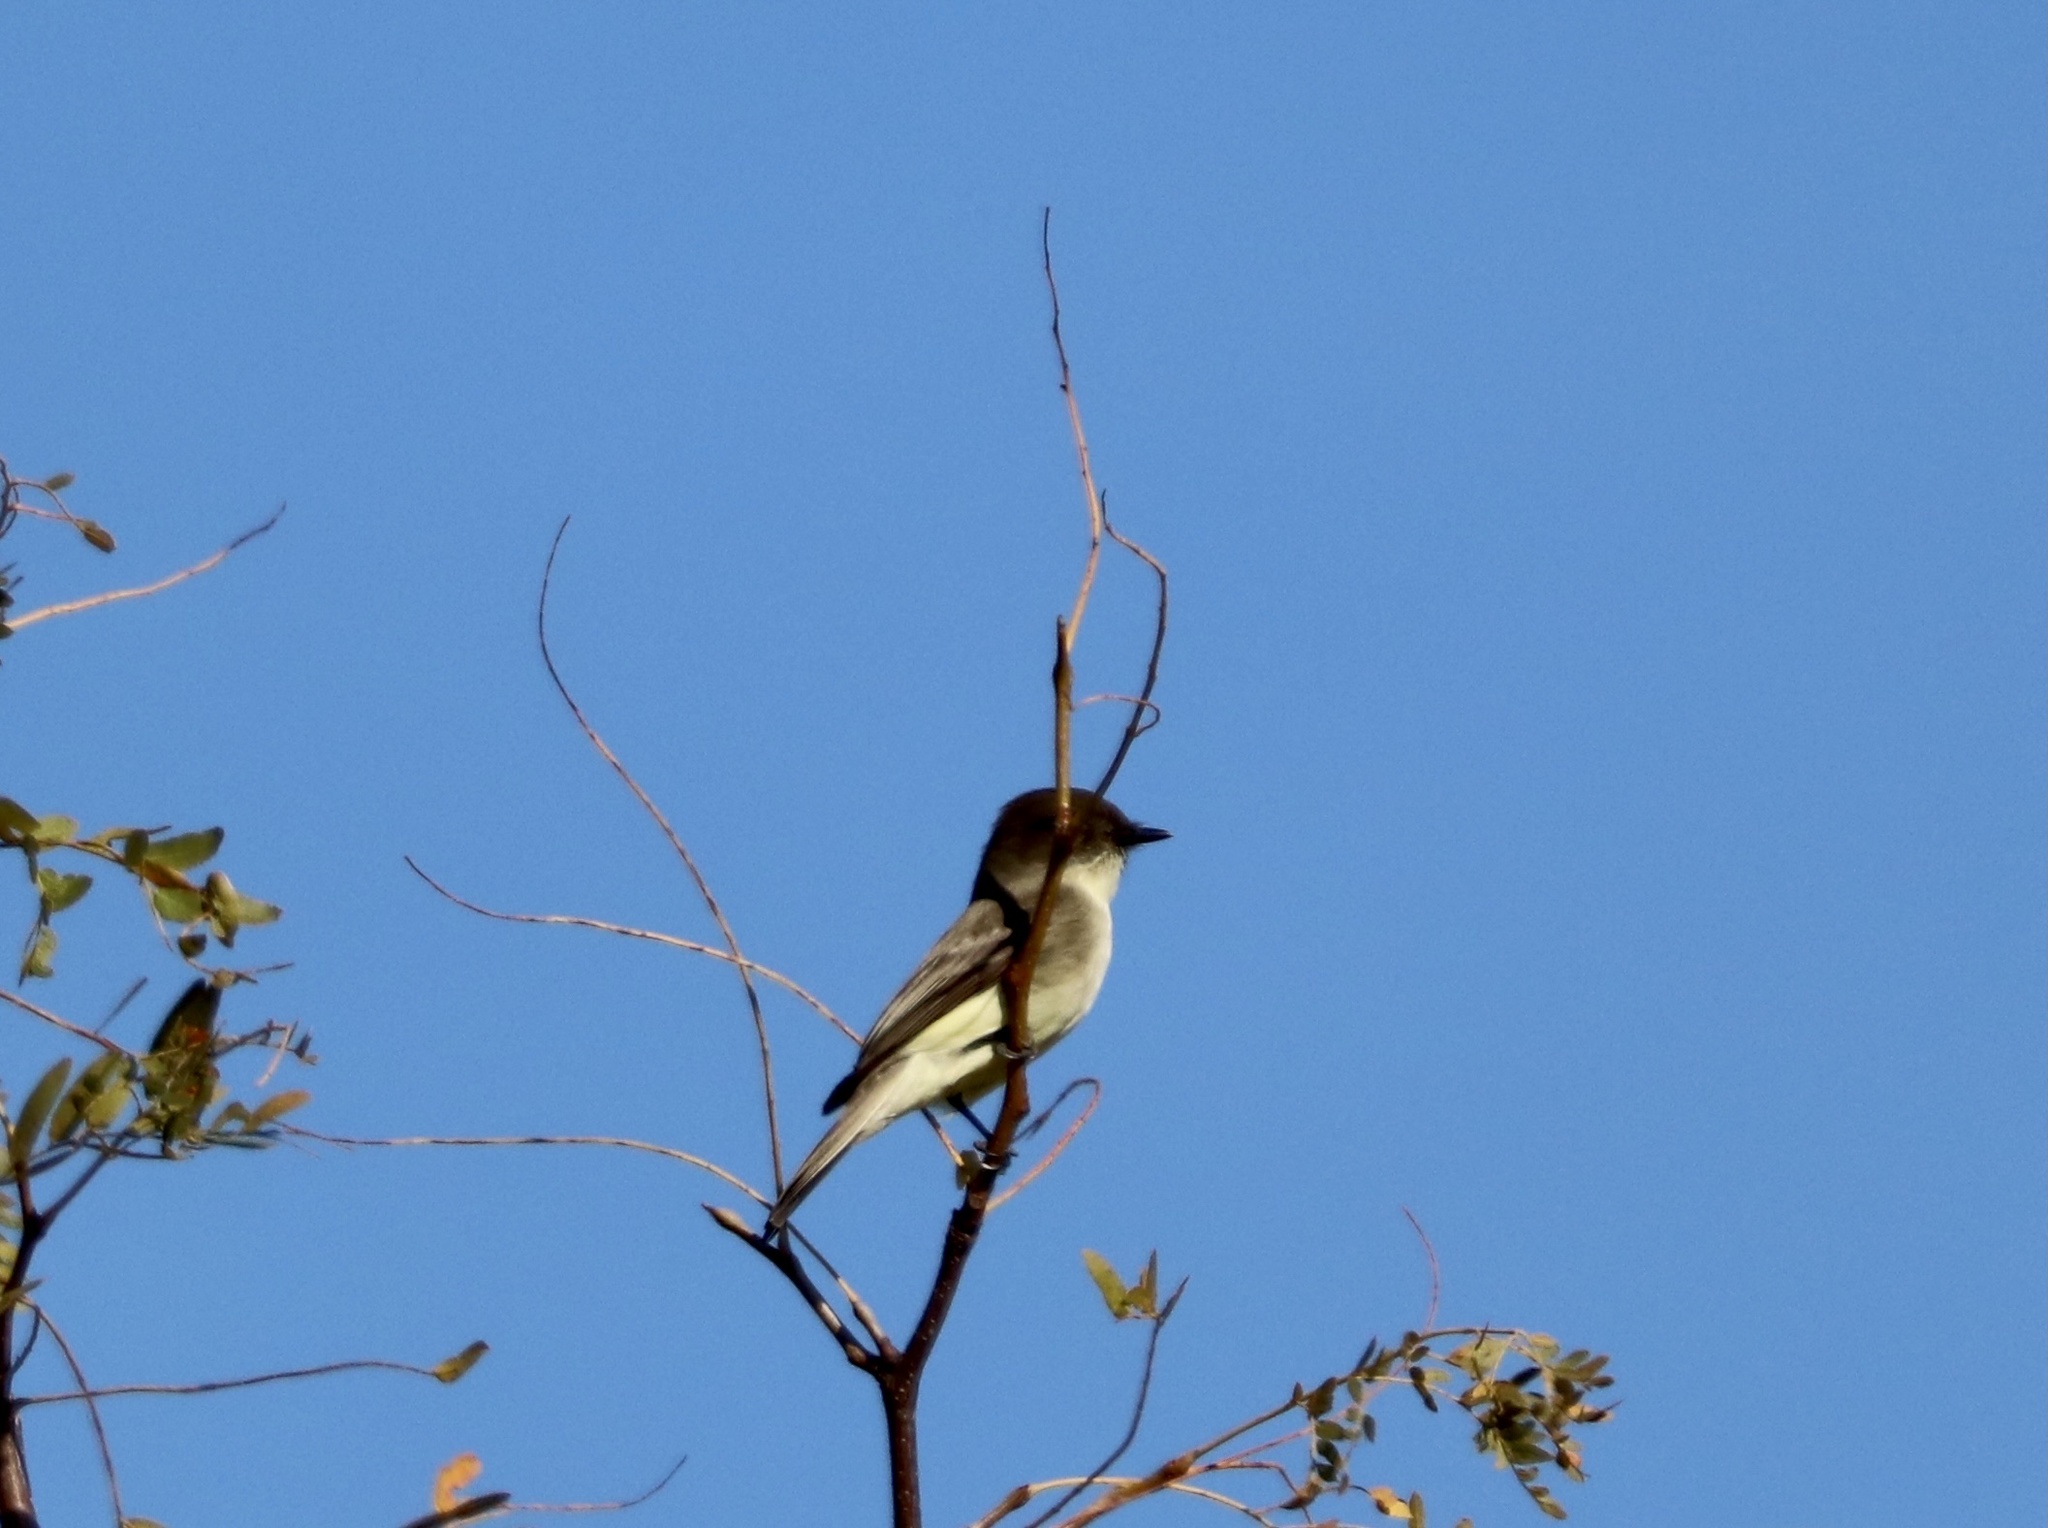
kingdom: Animalia
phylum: Chordata
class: Aves
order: Passeriformes
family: Tyrannidae
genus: Sayornis
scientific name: Sayornis phoebe
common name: Eastern phoebe
